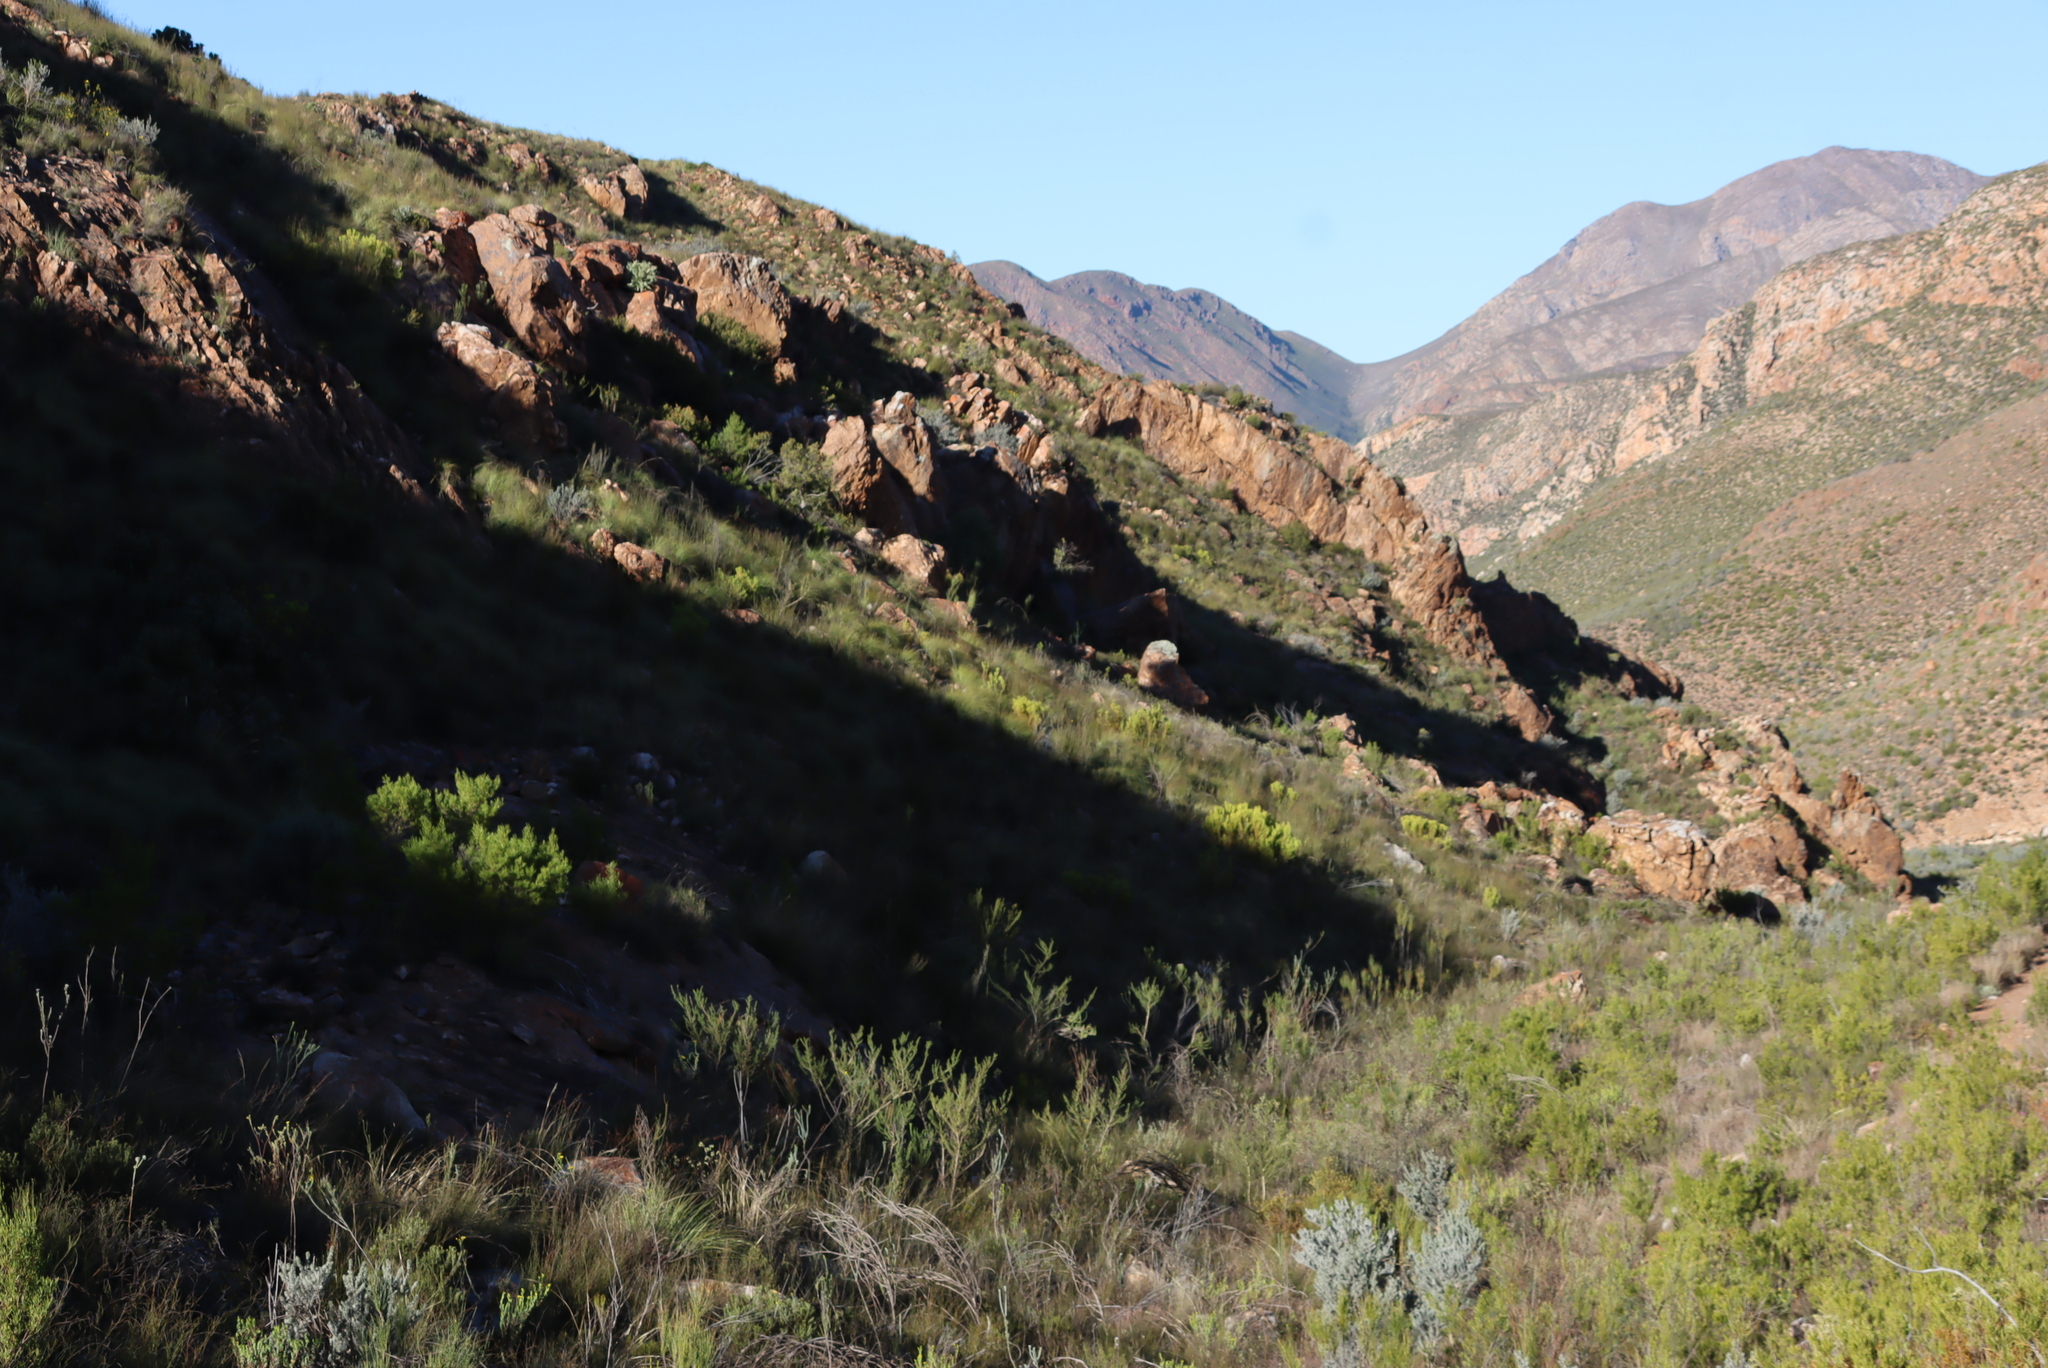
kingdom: Plantae
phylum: Tracheophyta
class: Magnoliopsida
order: Proteales
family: Proteaceae
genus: Leucadendron
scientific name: Leucadendron salignum
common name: Common sunshine conebush
